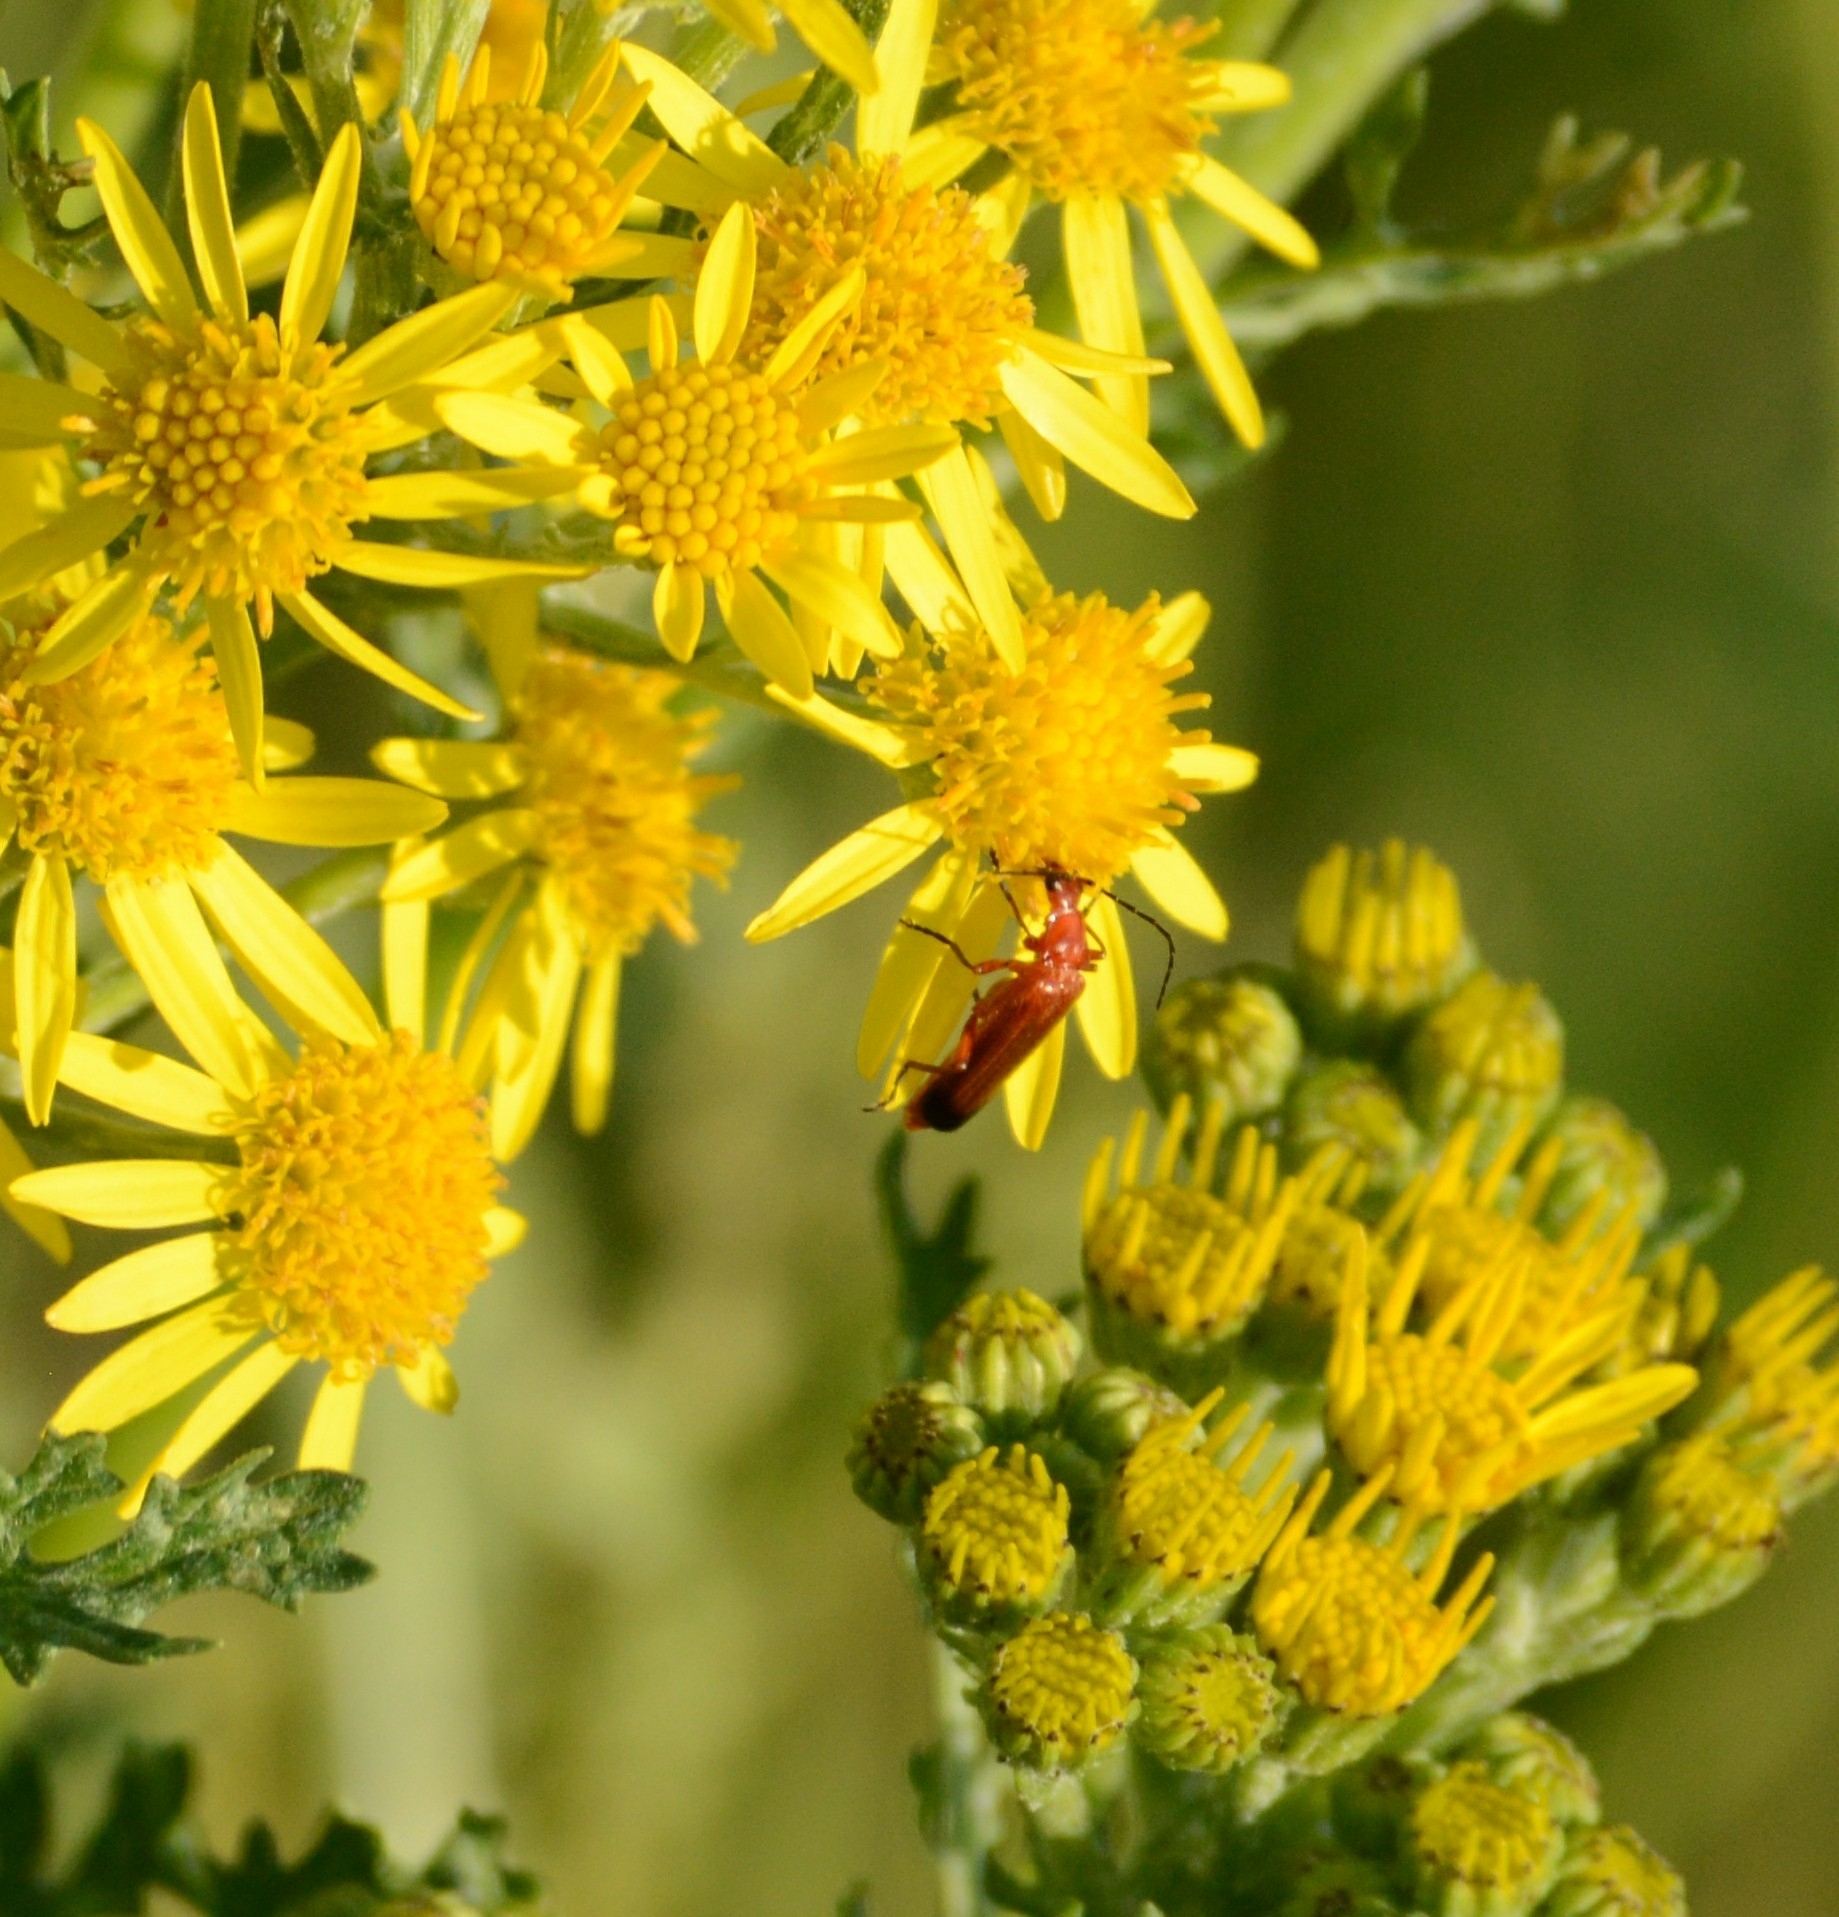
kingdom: Animalia
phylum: Arthropoda
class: Insecta
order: Coleoptera
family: Cantharidae
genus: Rhagonycha
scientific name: Rhagonycha fulva
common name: Common red soldier beetle
